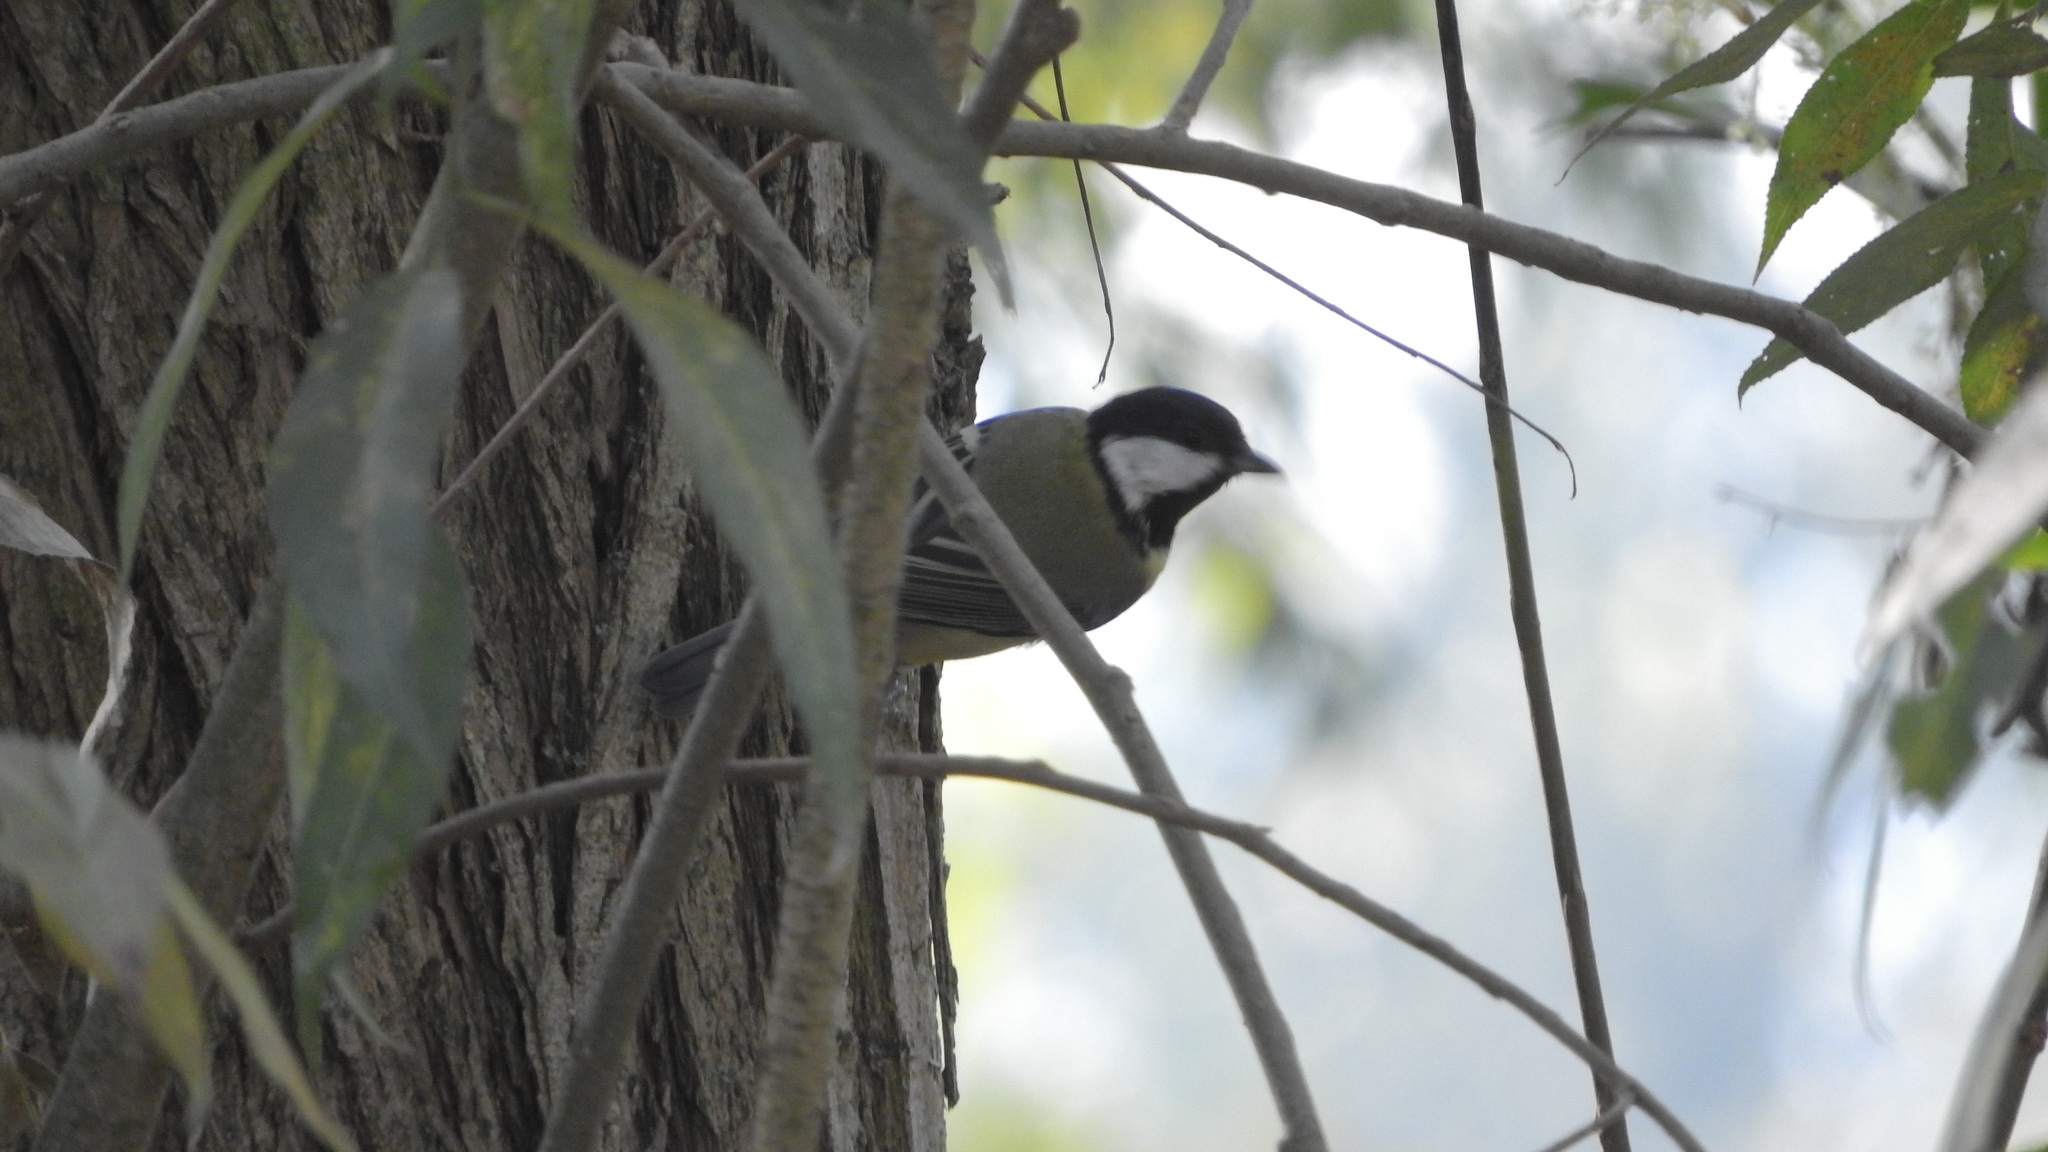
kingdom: Animalia
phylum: Chordata
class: Aves
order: Passeriformes
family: Paridae
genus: Parus
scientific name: Parus major
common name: Great tit
